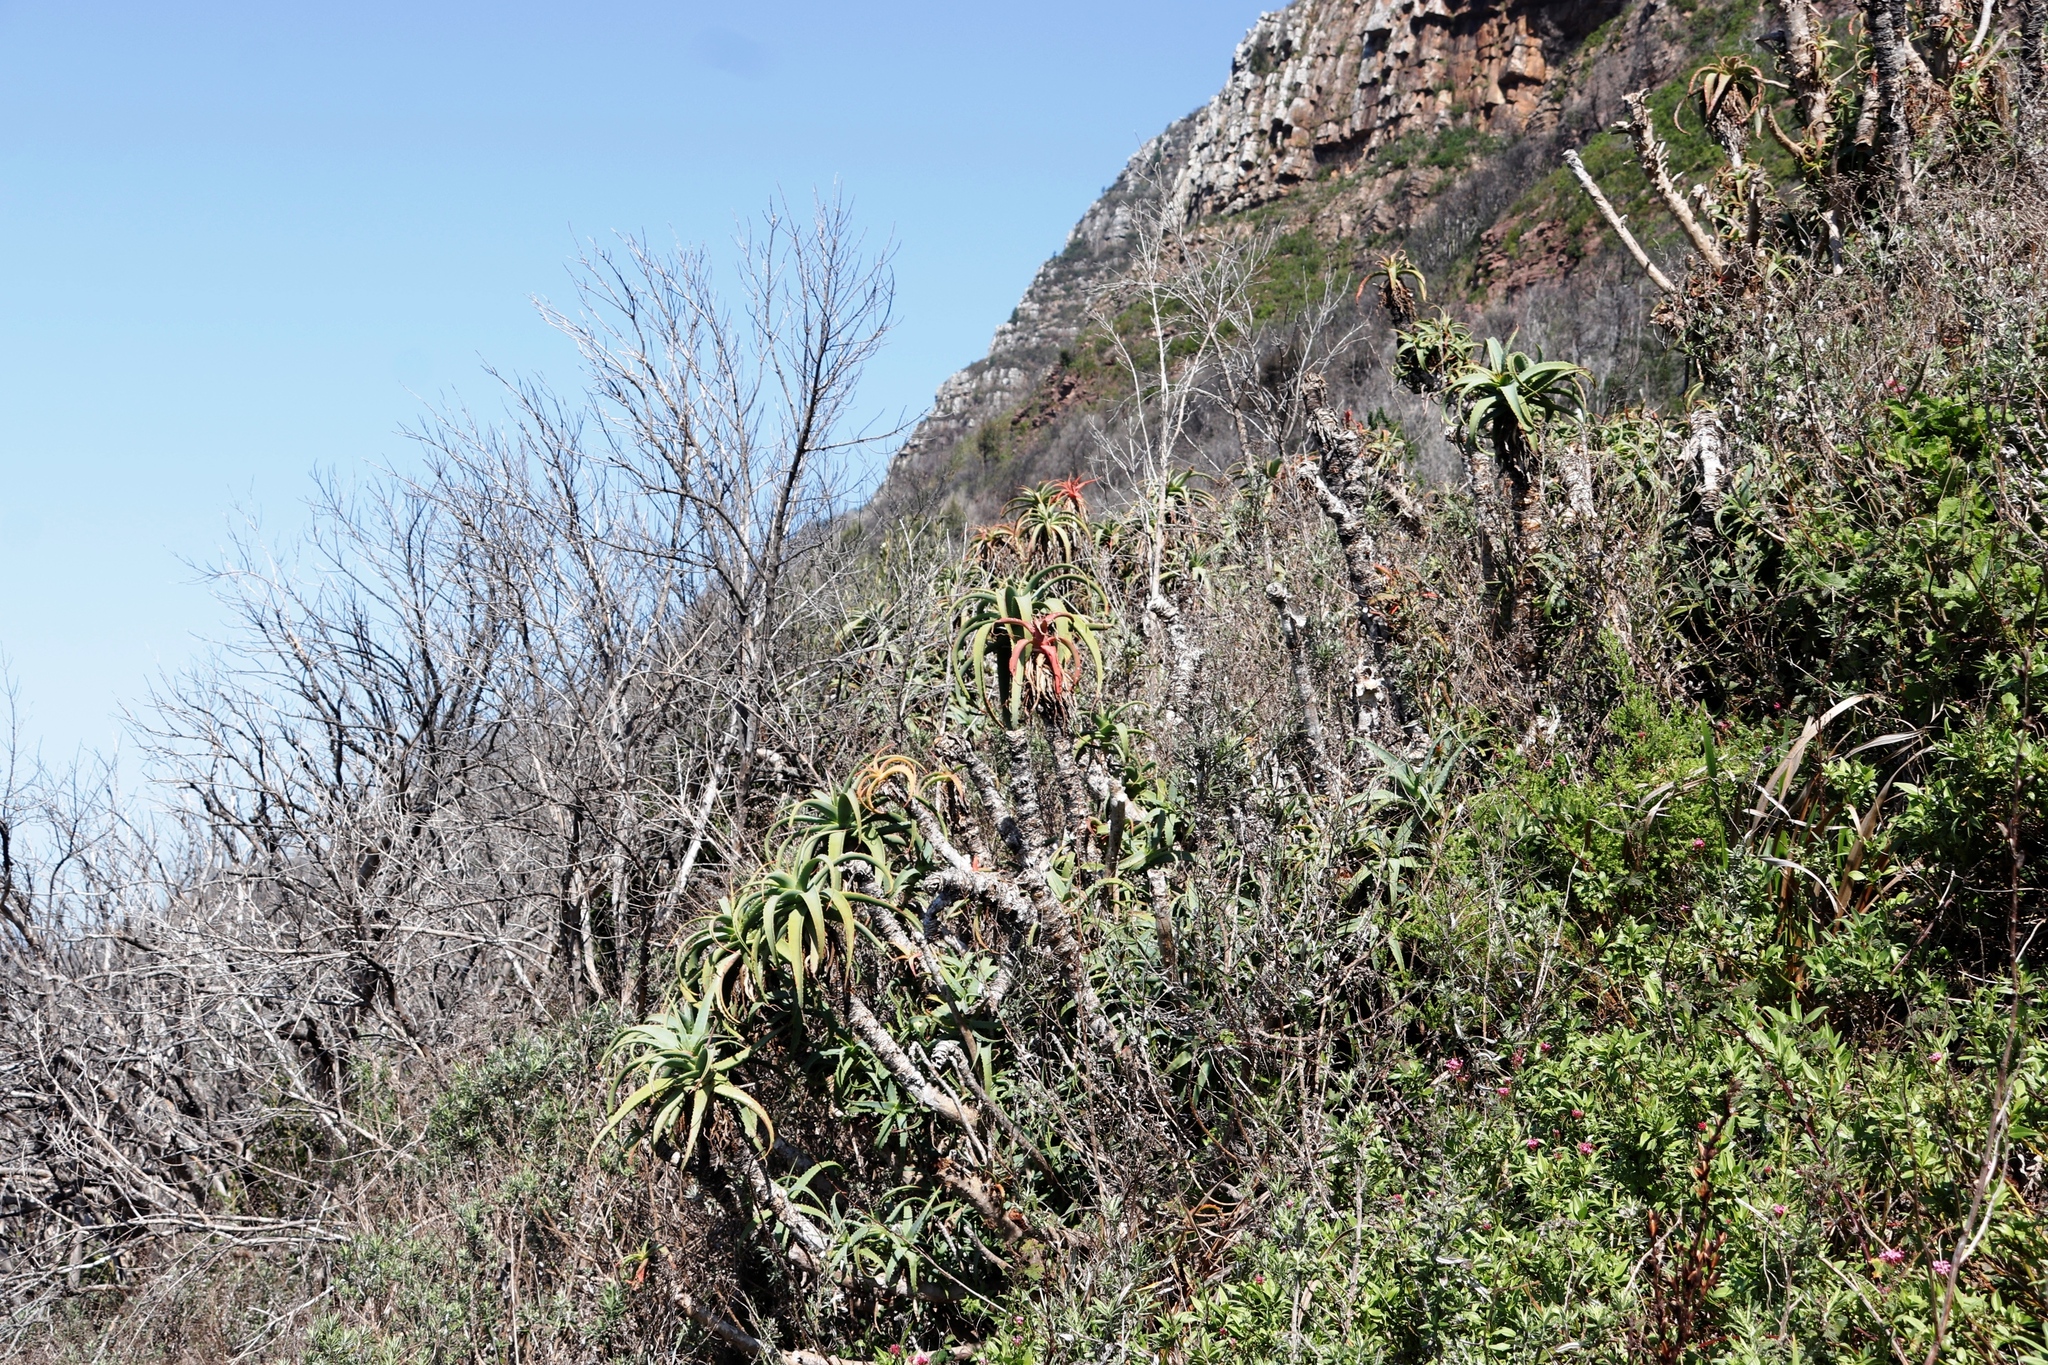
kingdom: Plantae
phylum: Tracheophyta
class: Liliopsida
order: Asparagales
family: Asphodelaceae
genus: Aloe
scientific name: Aloe arborescens
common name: Candelabra aloe
